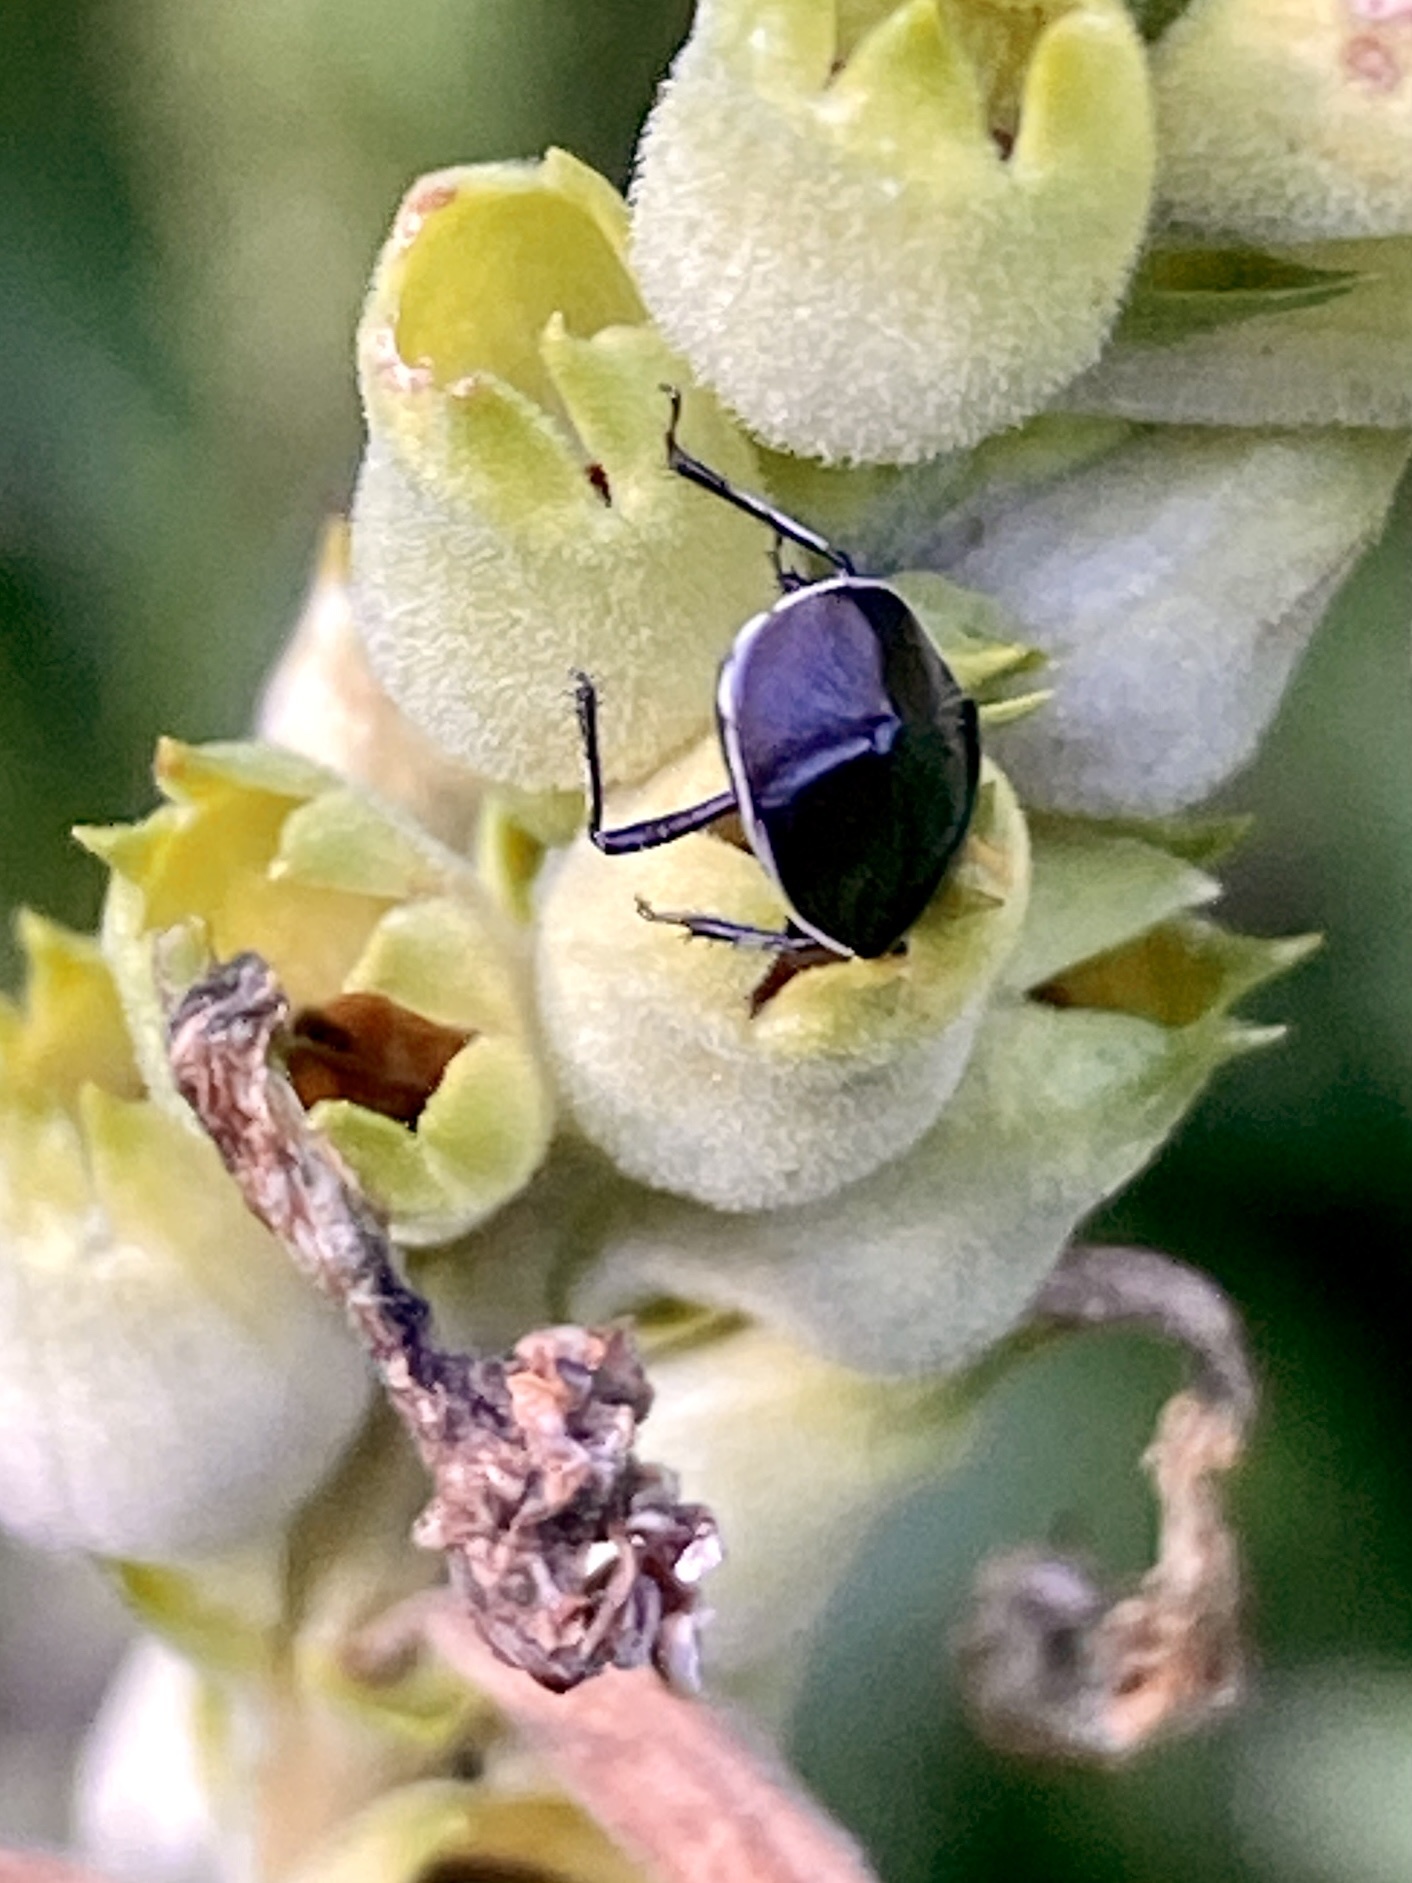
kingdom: Animalia
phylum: Arthropoda
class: Insecta
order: Hemiptera
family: Cydnidae
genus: Sehirus
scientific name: Sehirus cinctus
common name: White-margined burrower bug
